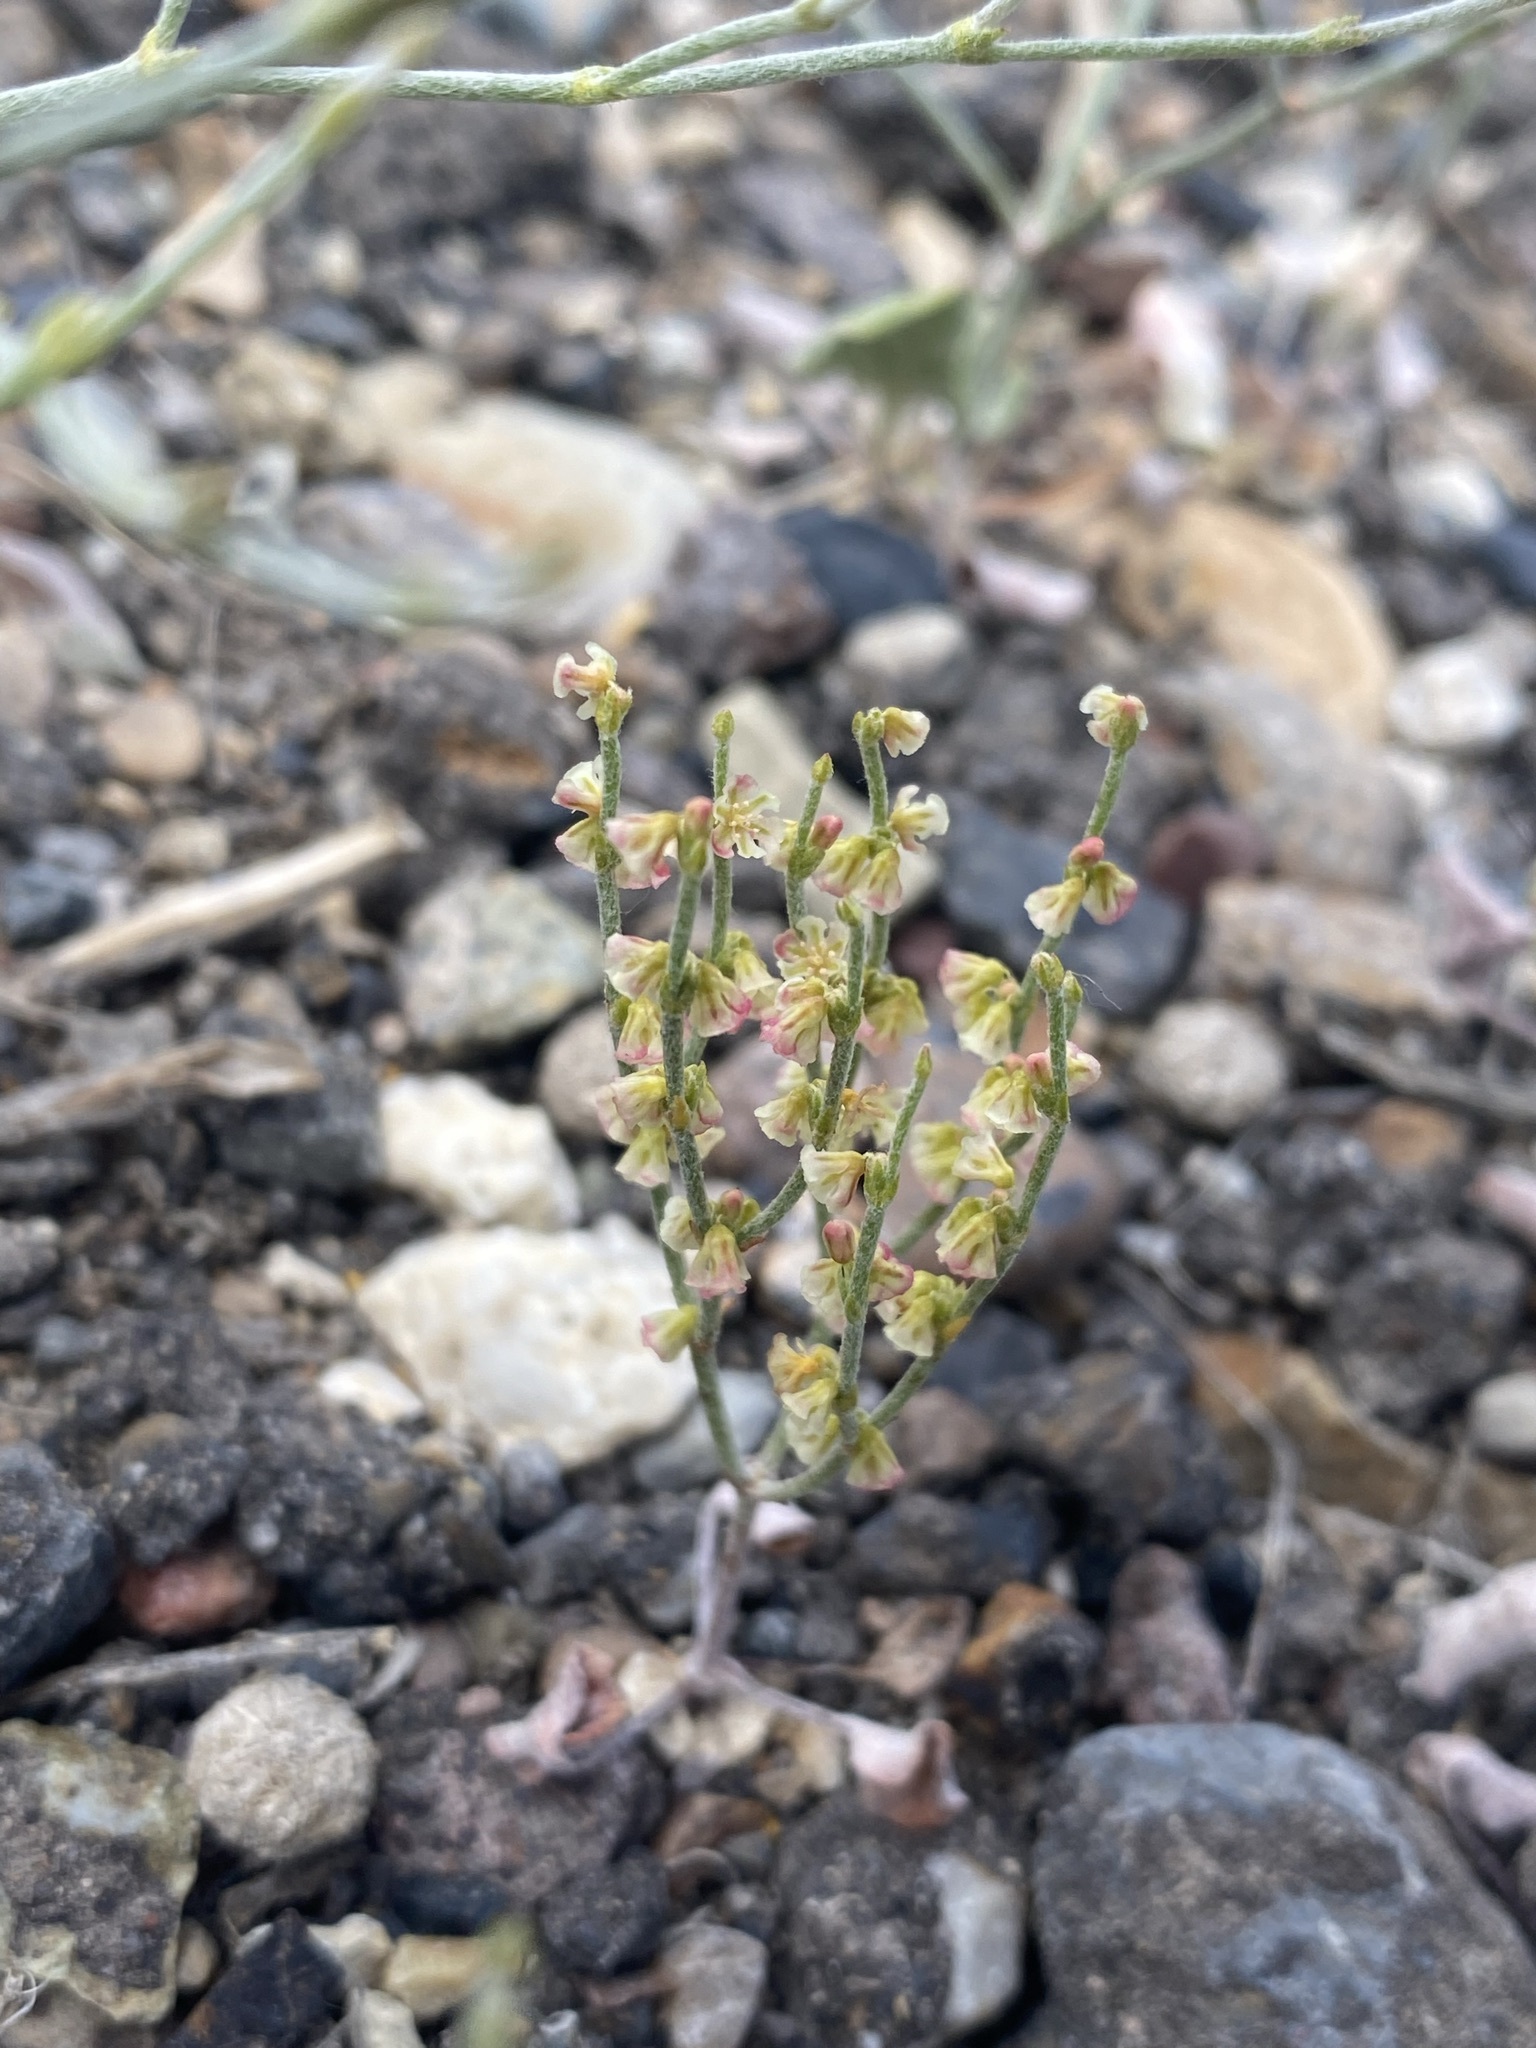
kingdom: Plantae
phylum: Tracheophyta
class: Magnoliopsida
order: Caryophyllales
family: Polygonaceae
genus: Eriogonum
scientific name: Eriogonum nidularium
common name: Bird's-nest wild buckwheat
